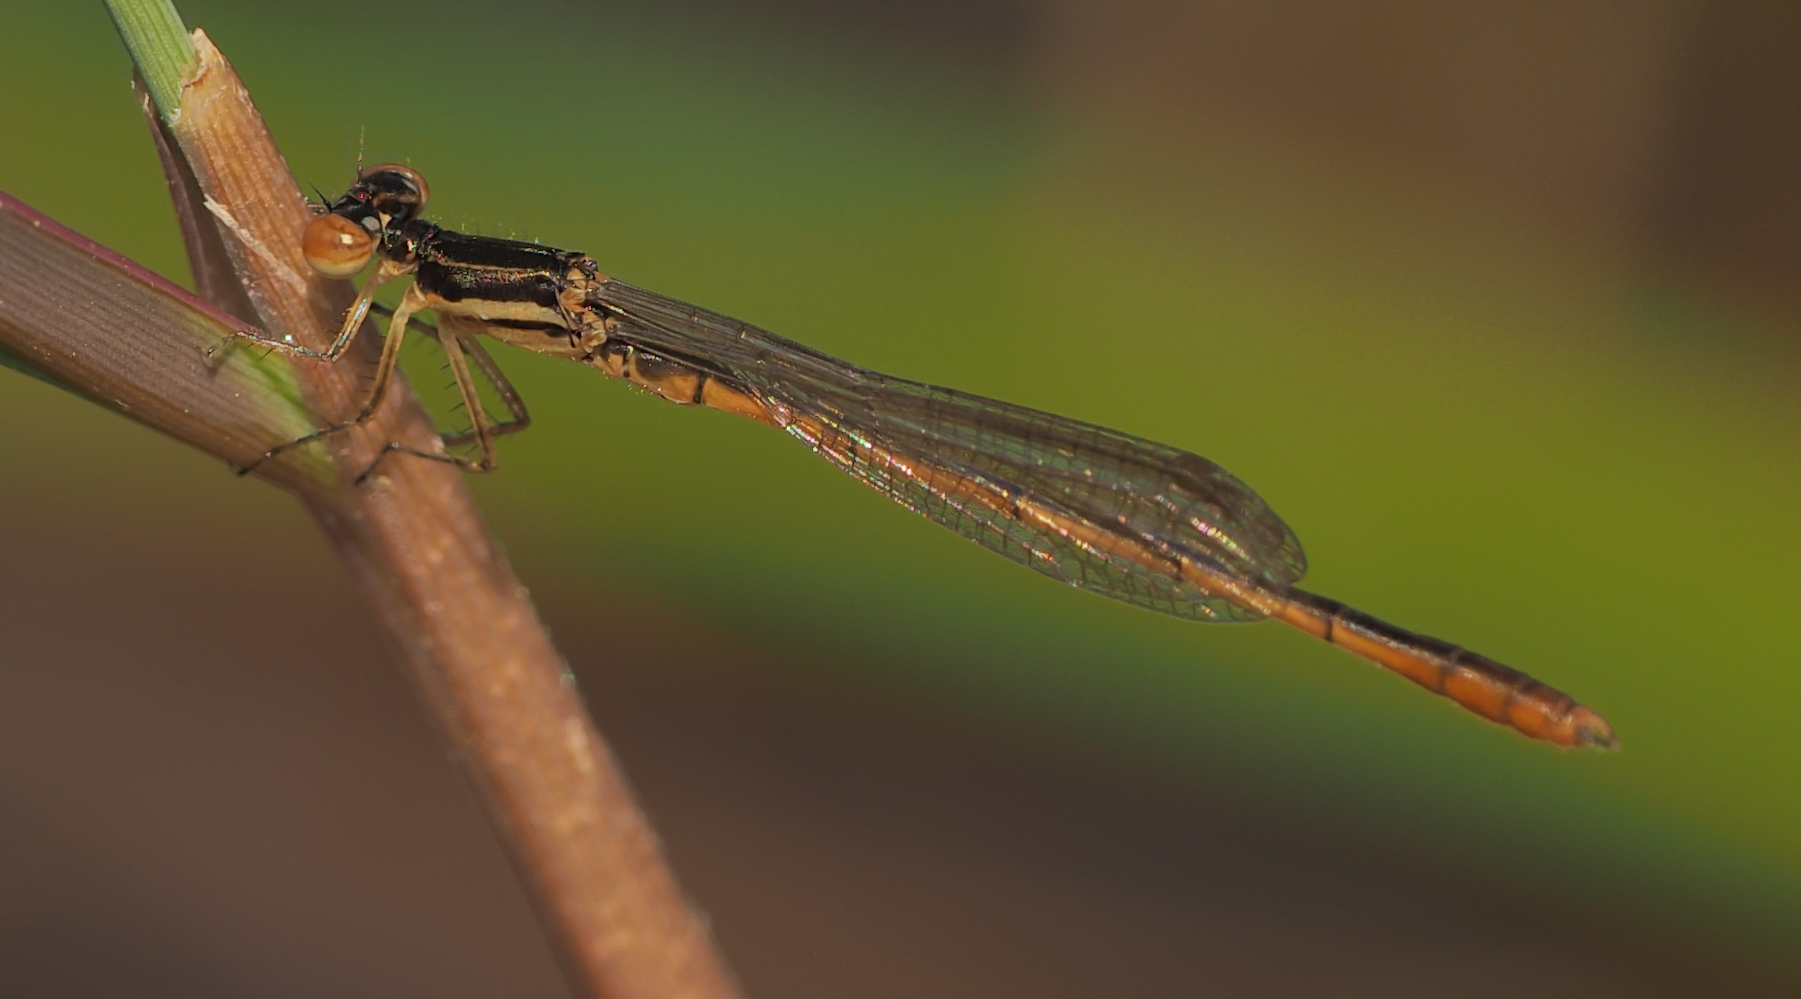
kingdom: Animalia
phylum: Arthropoda
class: Insecta
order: Odonata
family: Coenagrionidae
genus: Agriocnemis
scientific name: Agriocnemis victoria
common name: Lesser pincer-tailed wisp
